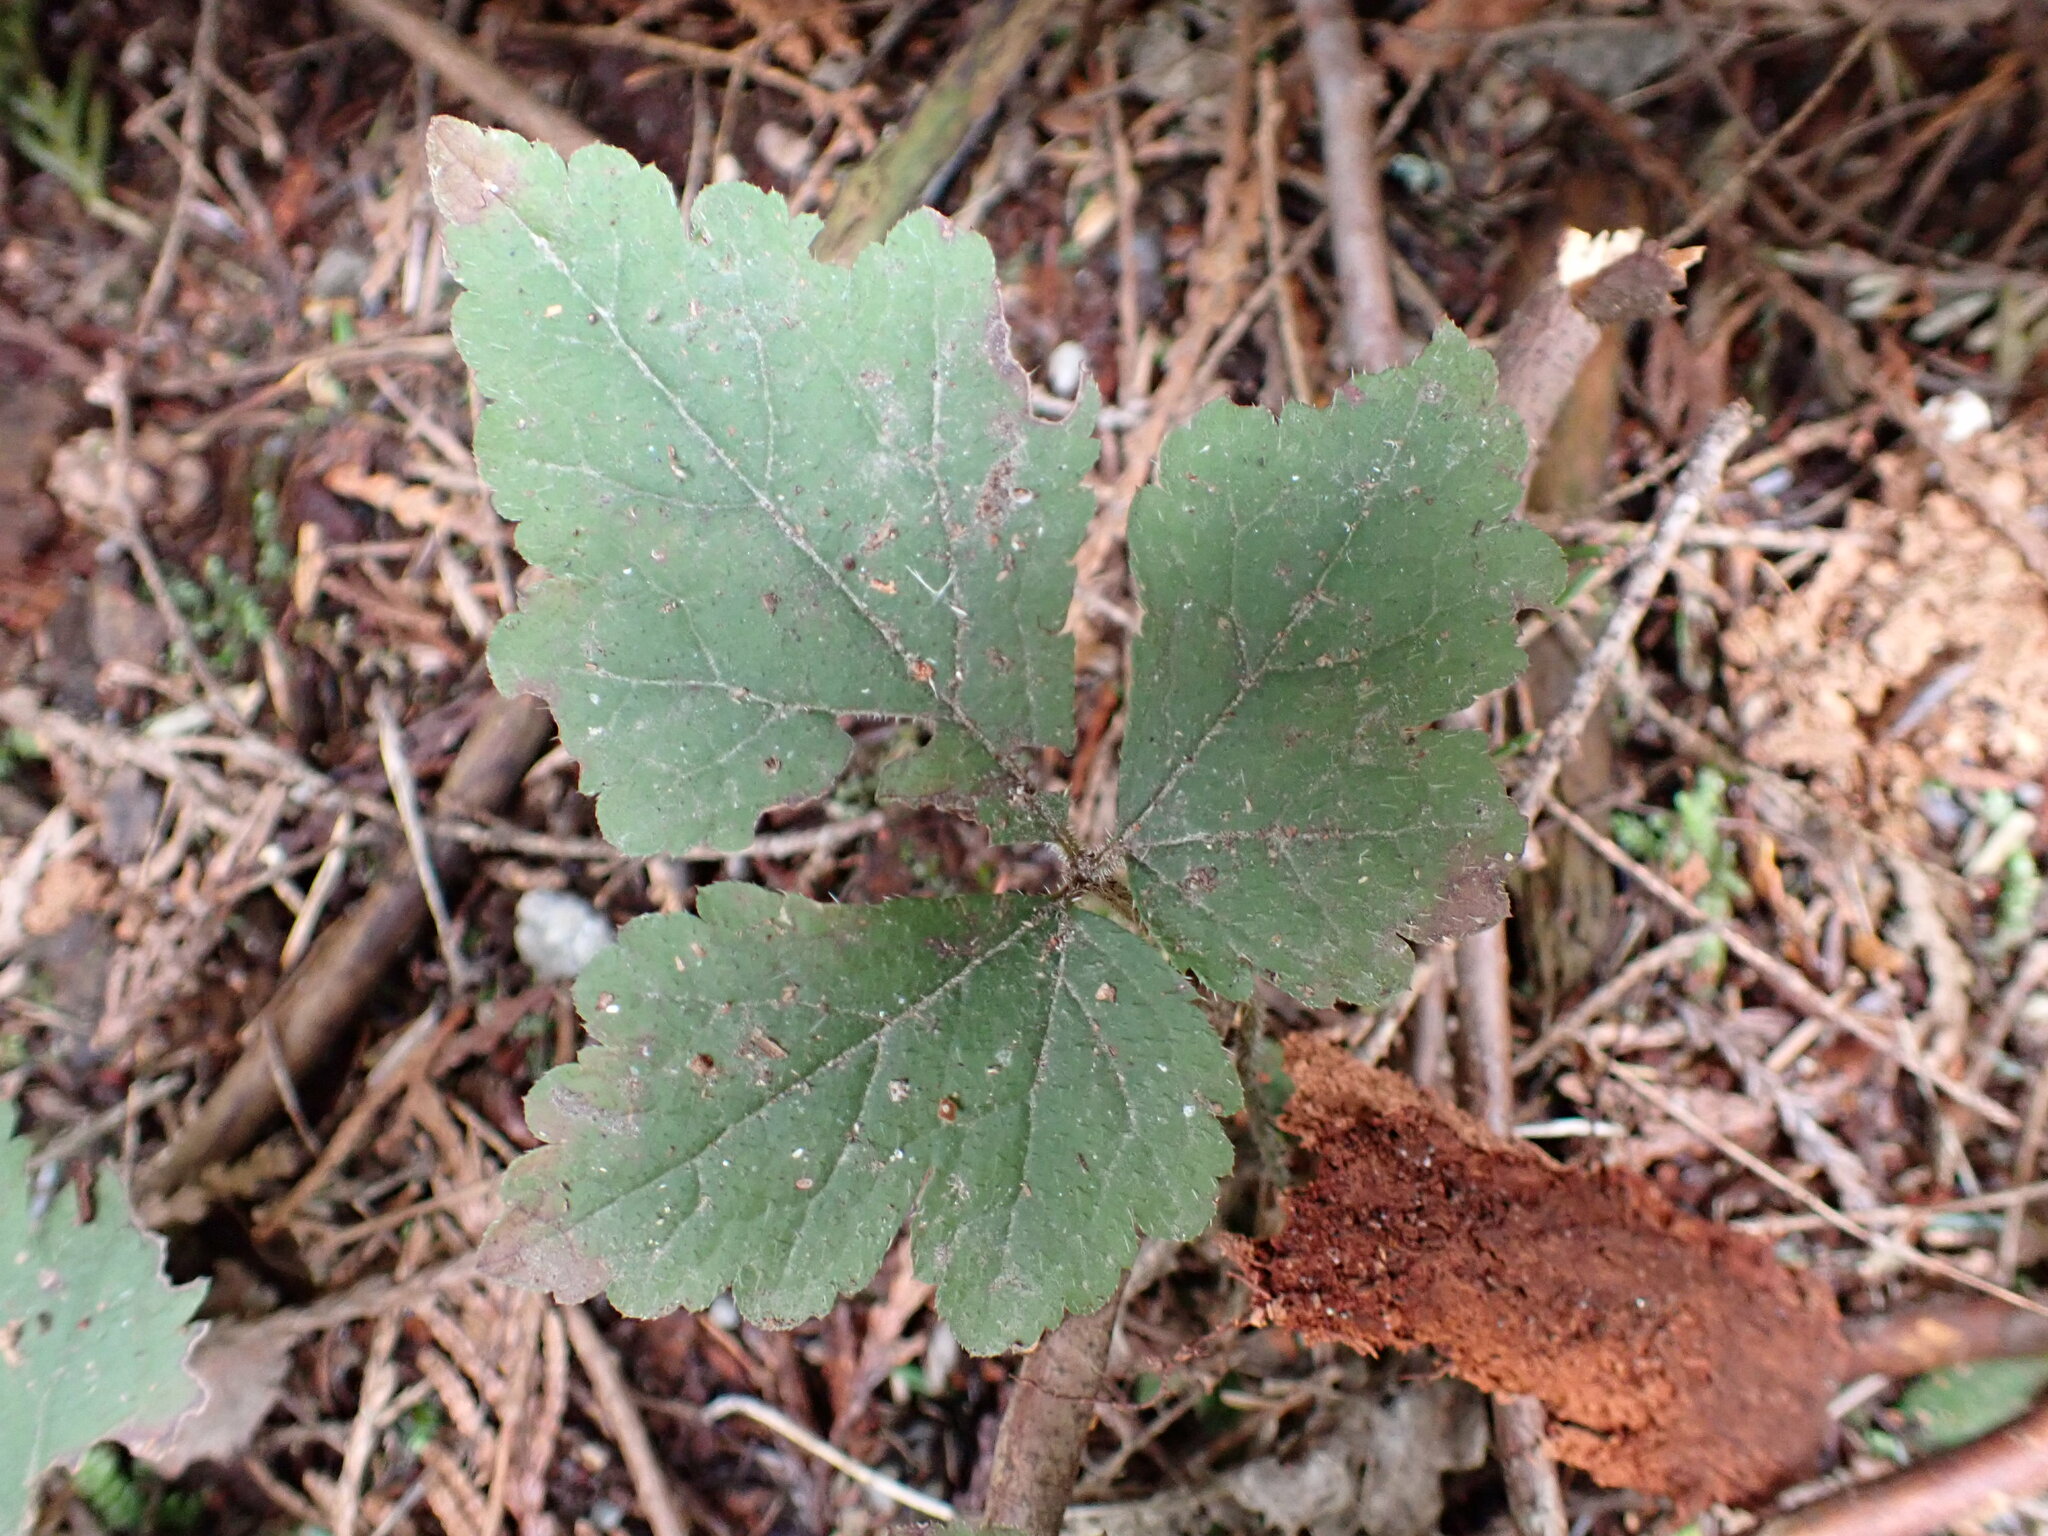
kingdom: Plantae
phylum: Tracheophyta
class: Magnoliopsida
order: Saxifragales
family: Saxifragaceae
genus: Tiarella
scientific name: Tiarella trifoliata
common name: Sugar-scoop
